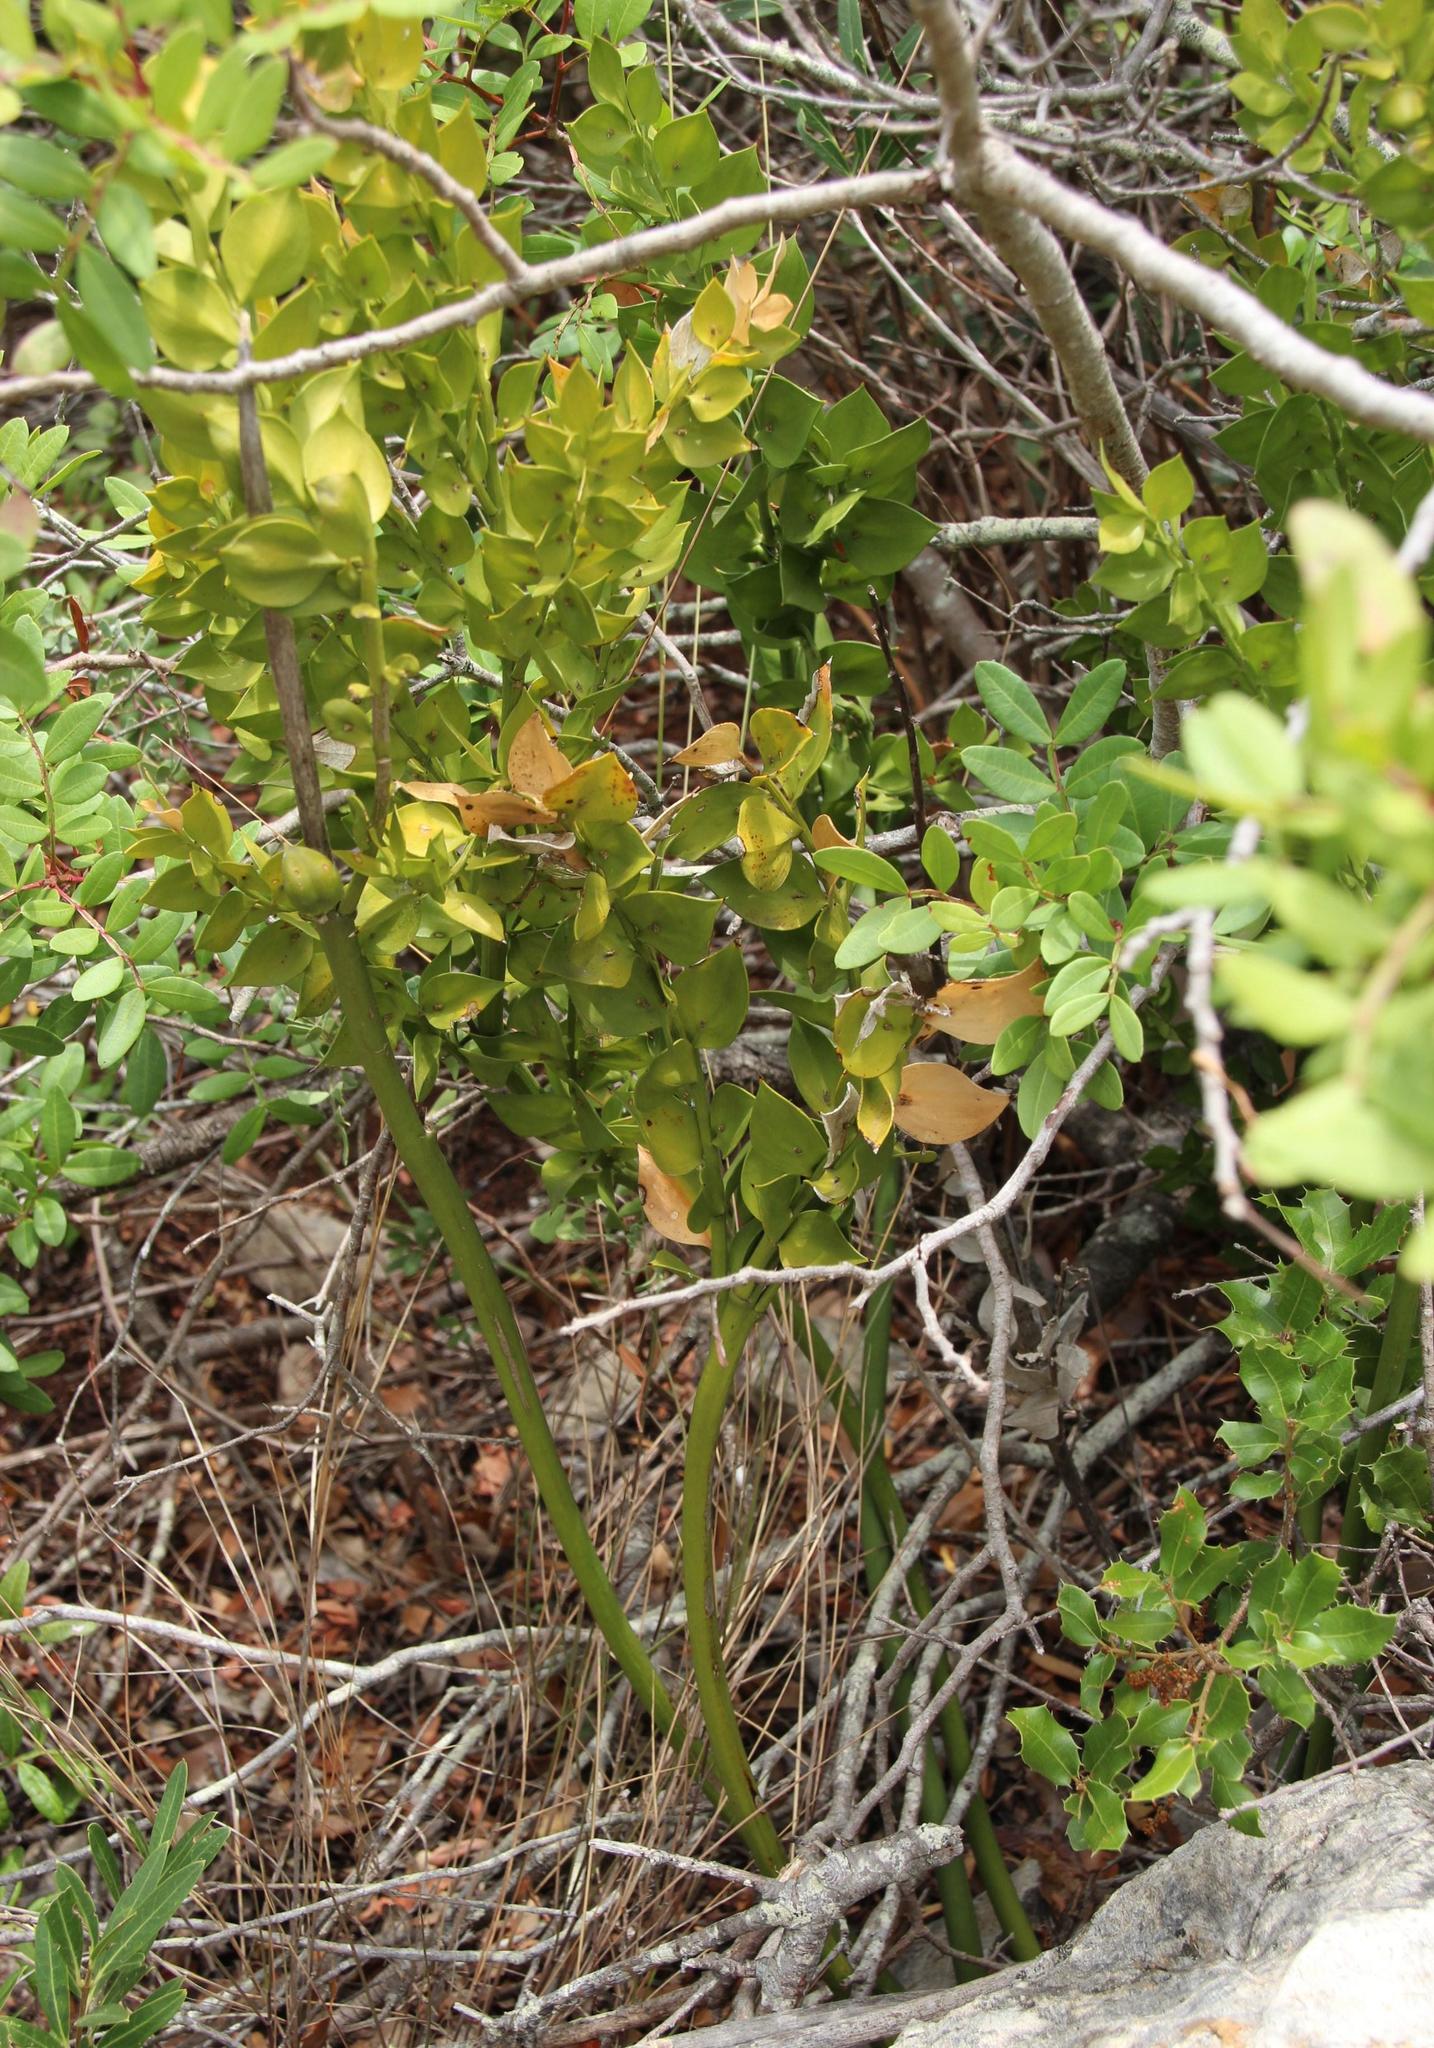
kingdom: Plantae
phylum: Tracheophyta
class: Liliopsida
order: Asparagales
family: Asparagaceae
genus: Ruscus
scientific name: Ruscus aculeatus
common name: Butcher's-broom
